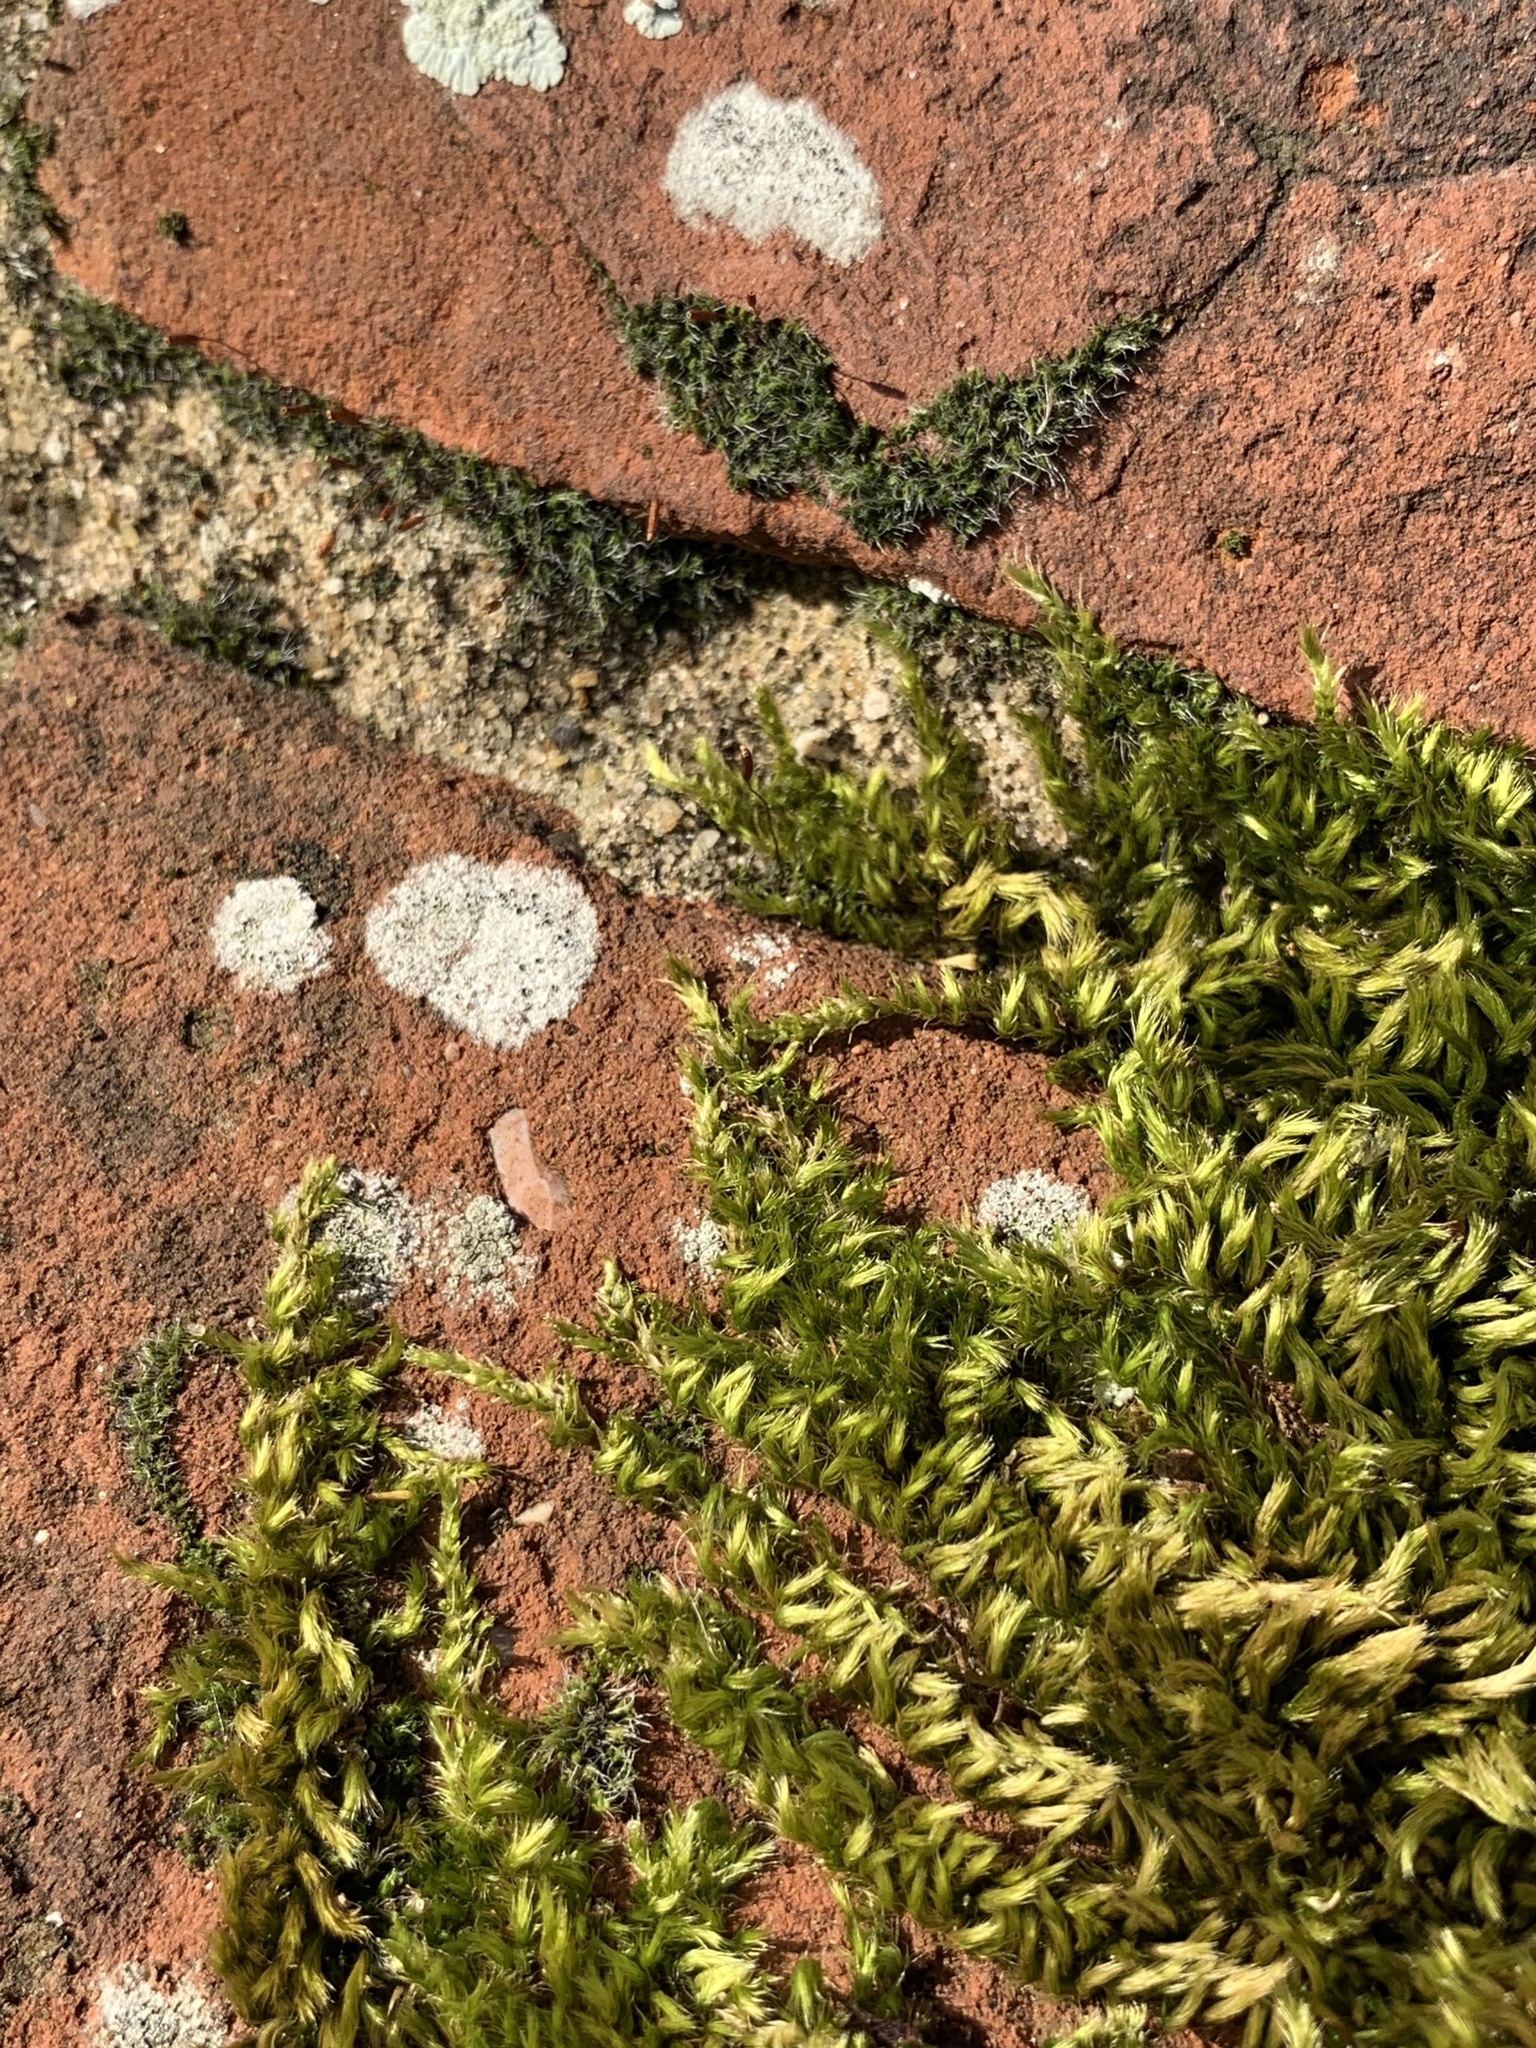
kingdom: Plantae
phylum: Bryophyta
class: Bryopsida
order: Hypnales
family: Brachytheciaceae
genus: Homalothecium
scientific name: Homalothecium sericeum
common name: Silky wall feather-moss
